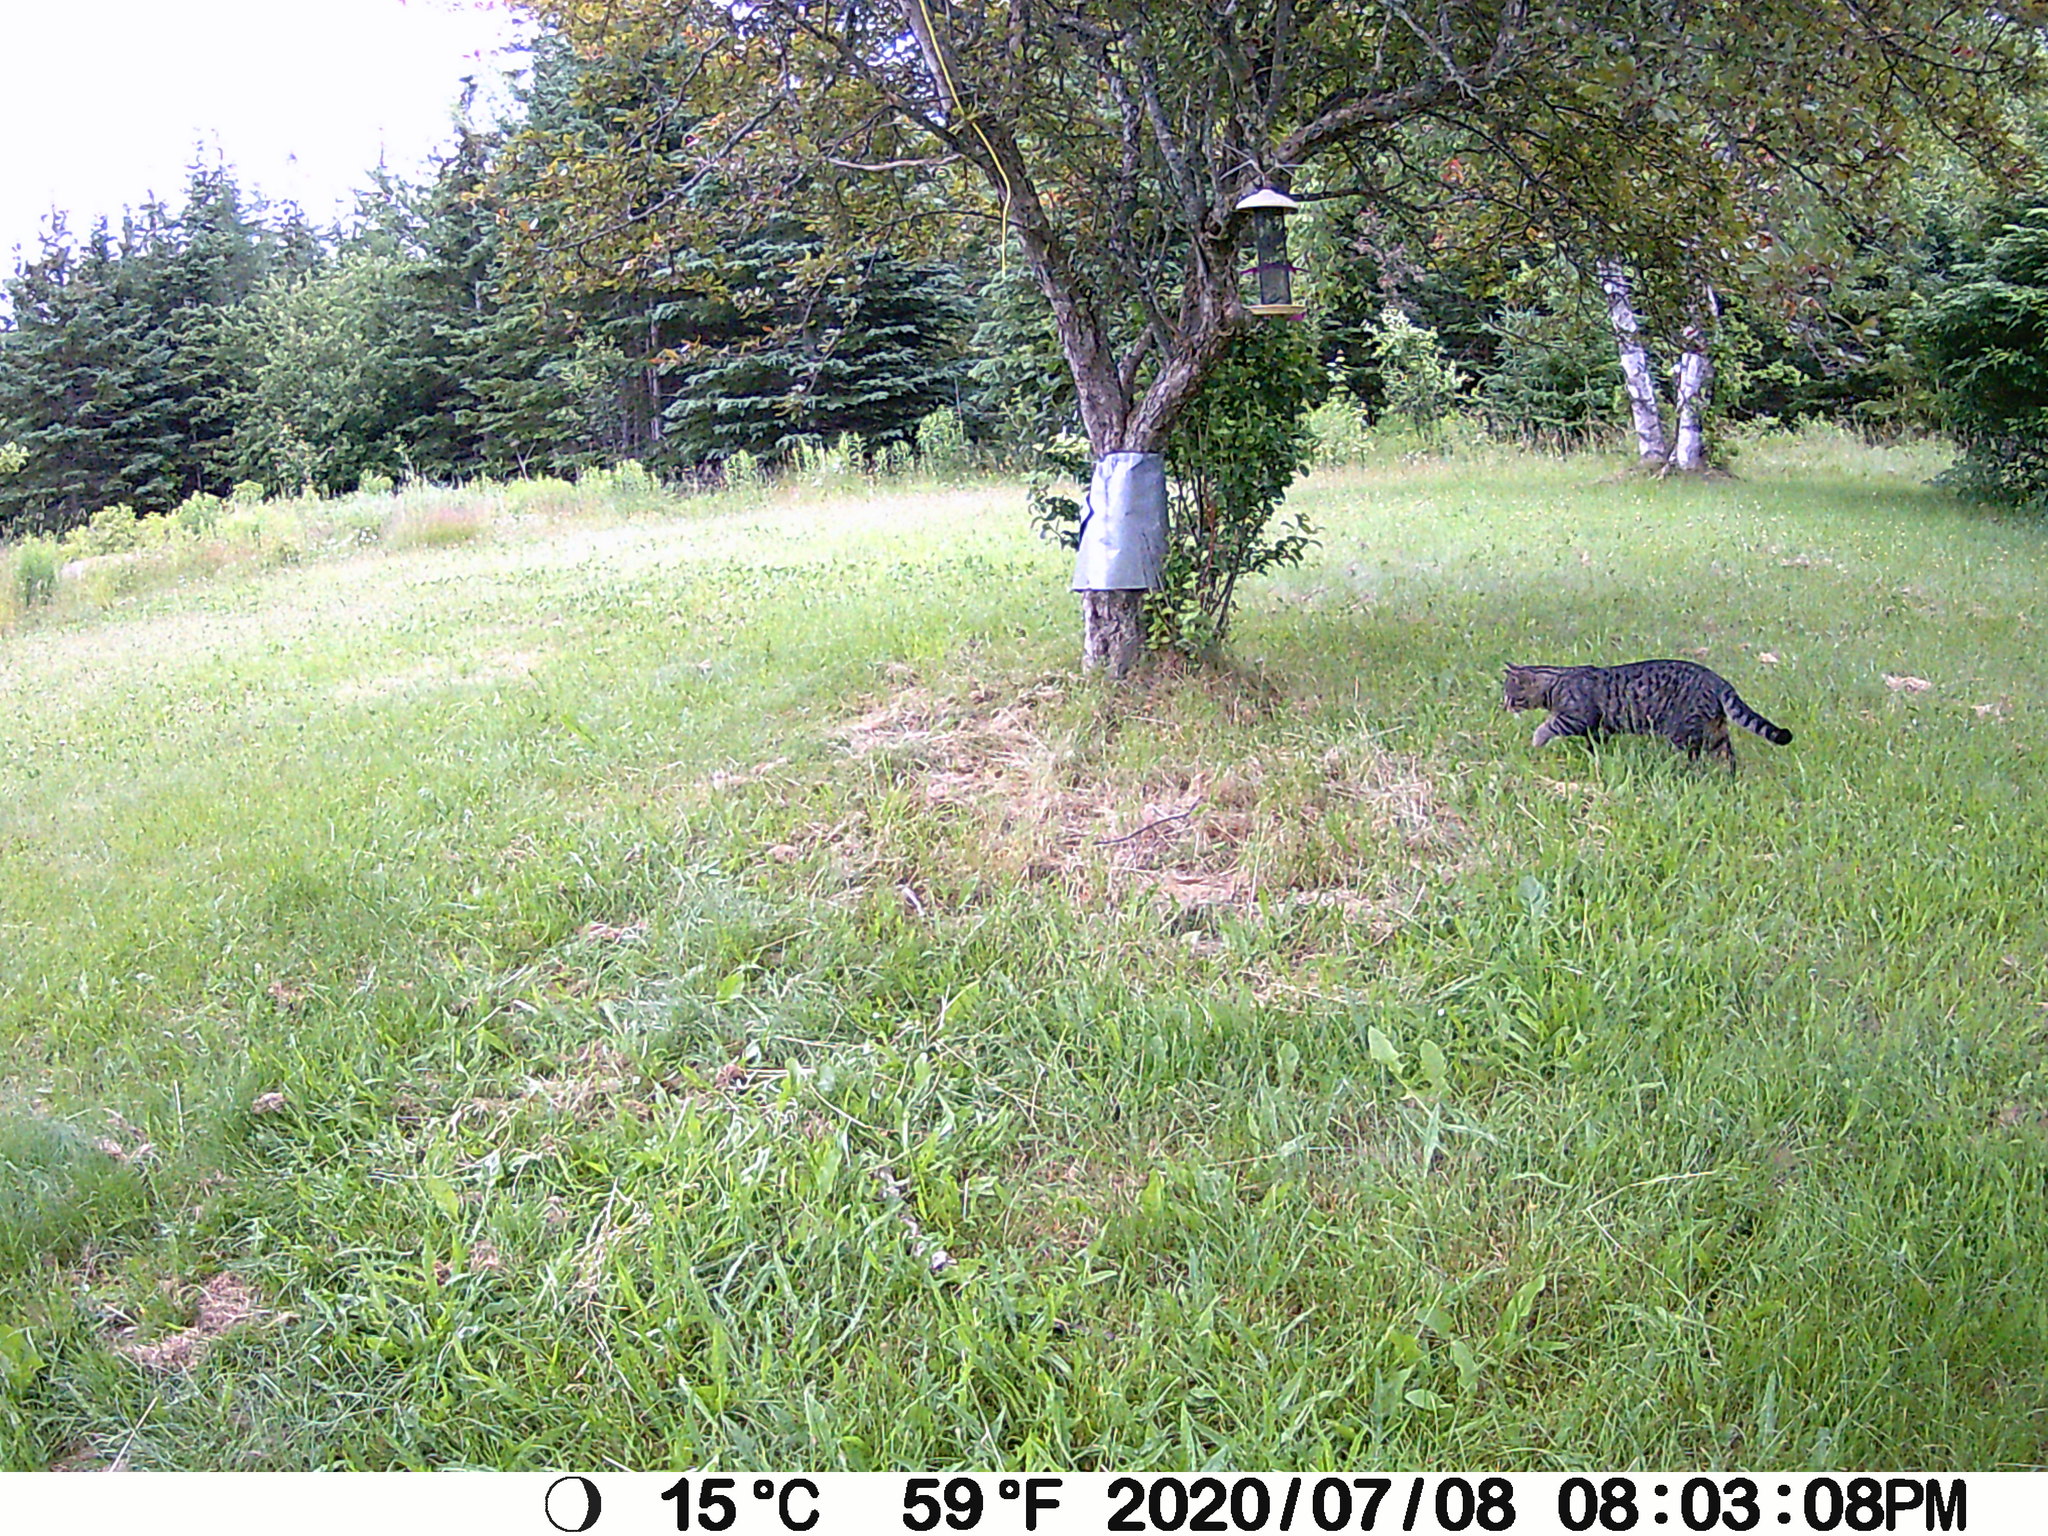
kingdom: Animalia
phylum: Chordata
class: Mammalia
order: Carnivora
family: Felidae
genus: Felis
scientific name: Felis catus
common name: Domestic cat
